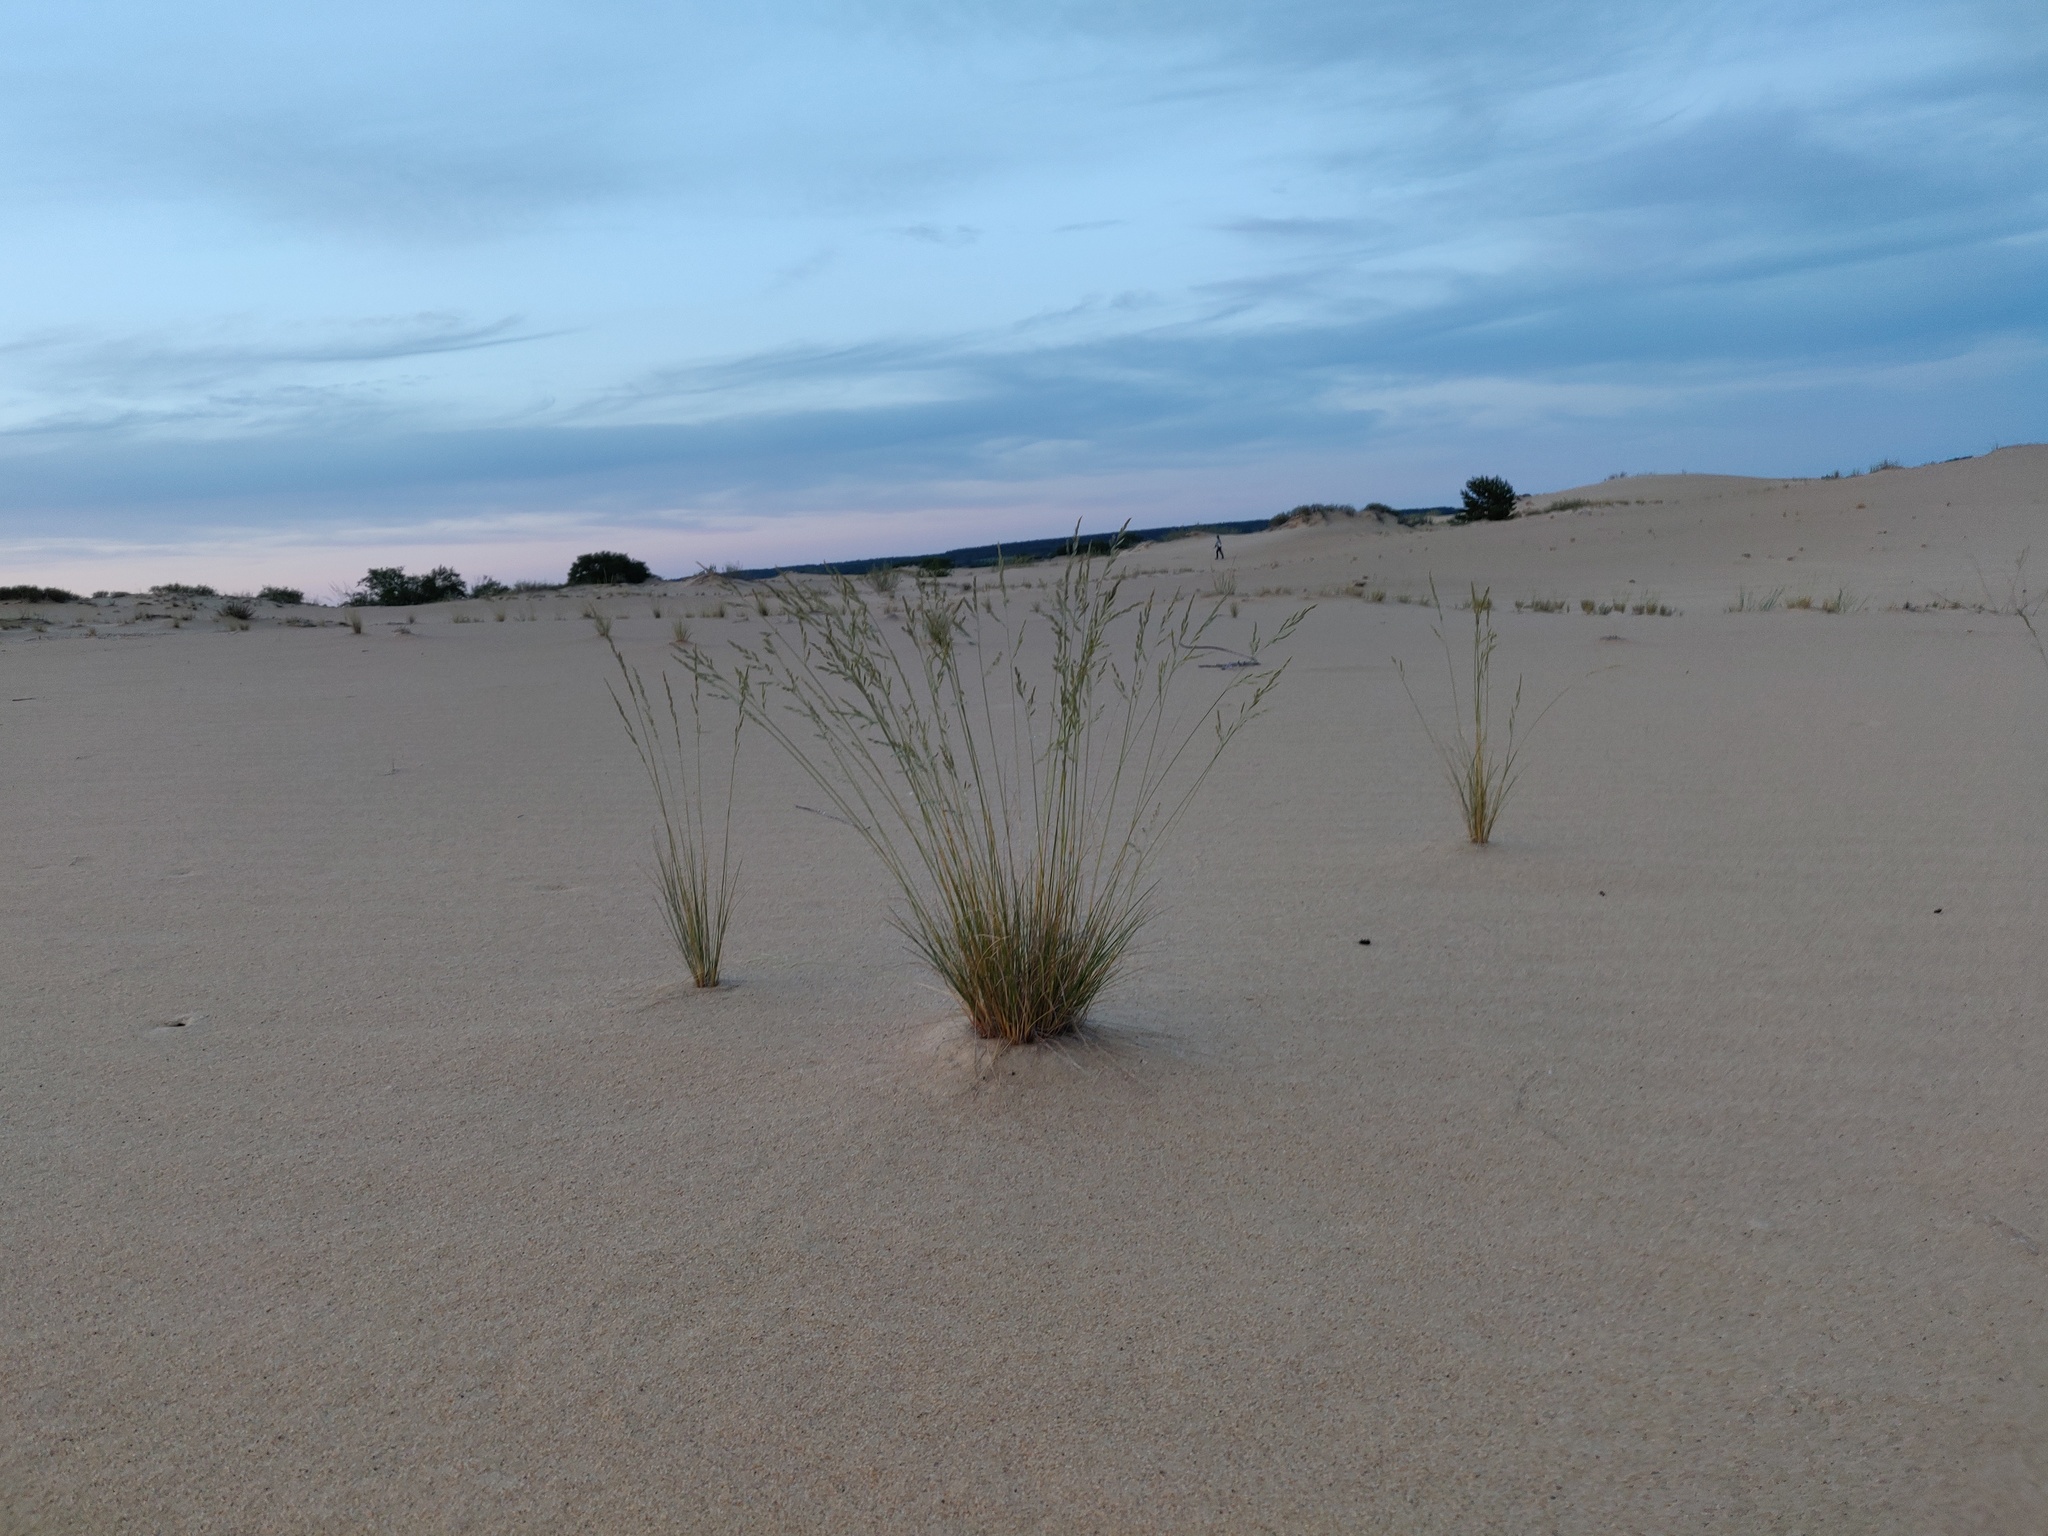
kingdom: Plantae
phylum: Tracheophyta
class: Liliopsida
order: Poales
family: Poaceae
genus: Festuca
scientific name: Festuca beckeri
